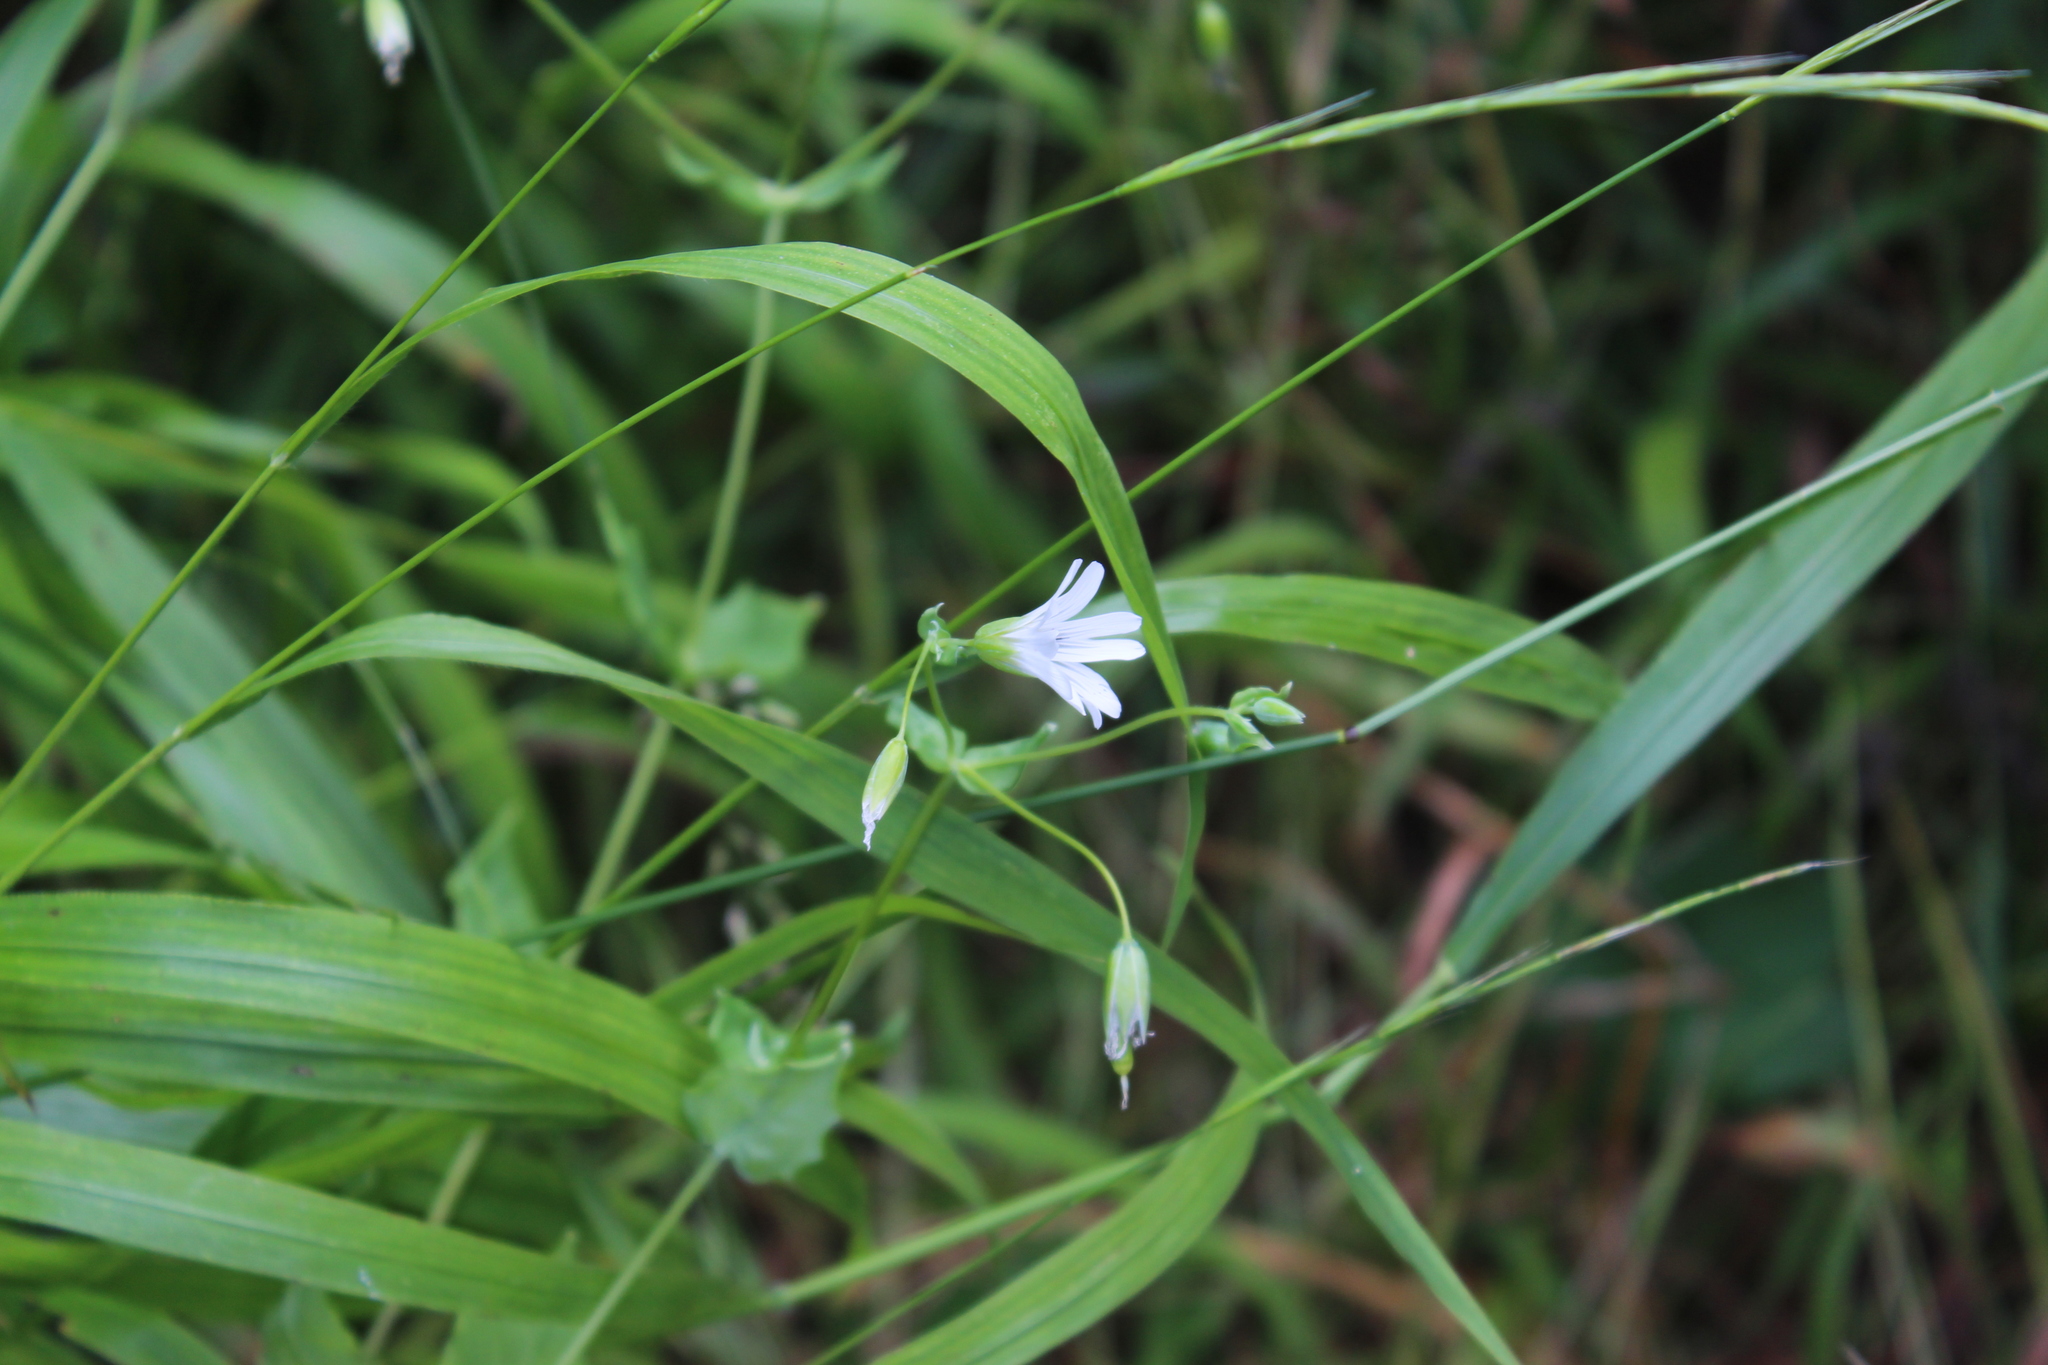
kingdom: Plantae
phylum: Tracheophyta
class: Magnoliopsida
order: Caryophyllales
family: Caryophyllaceae
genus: Cerastium
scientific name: Cerastium davuricum
